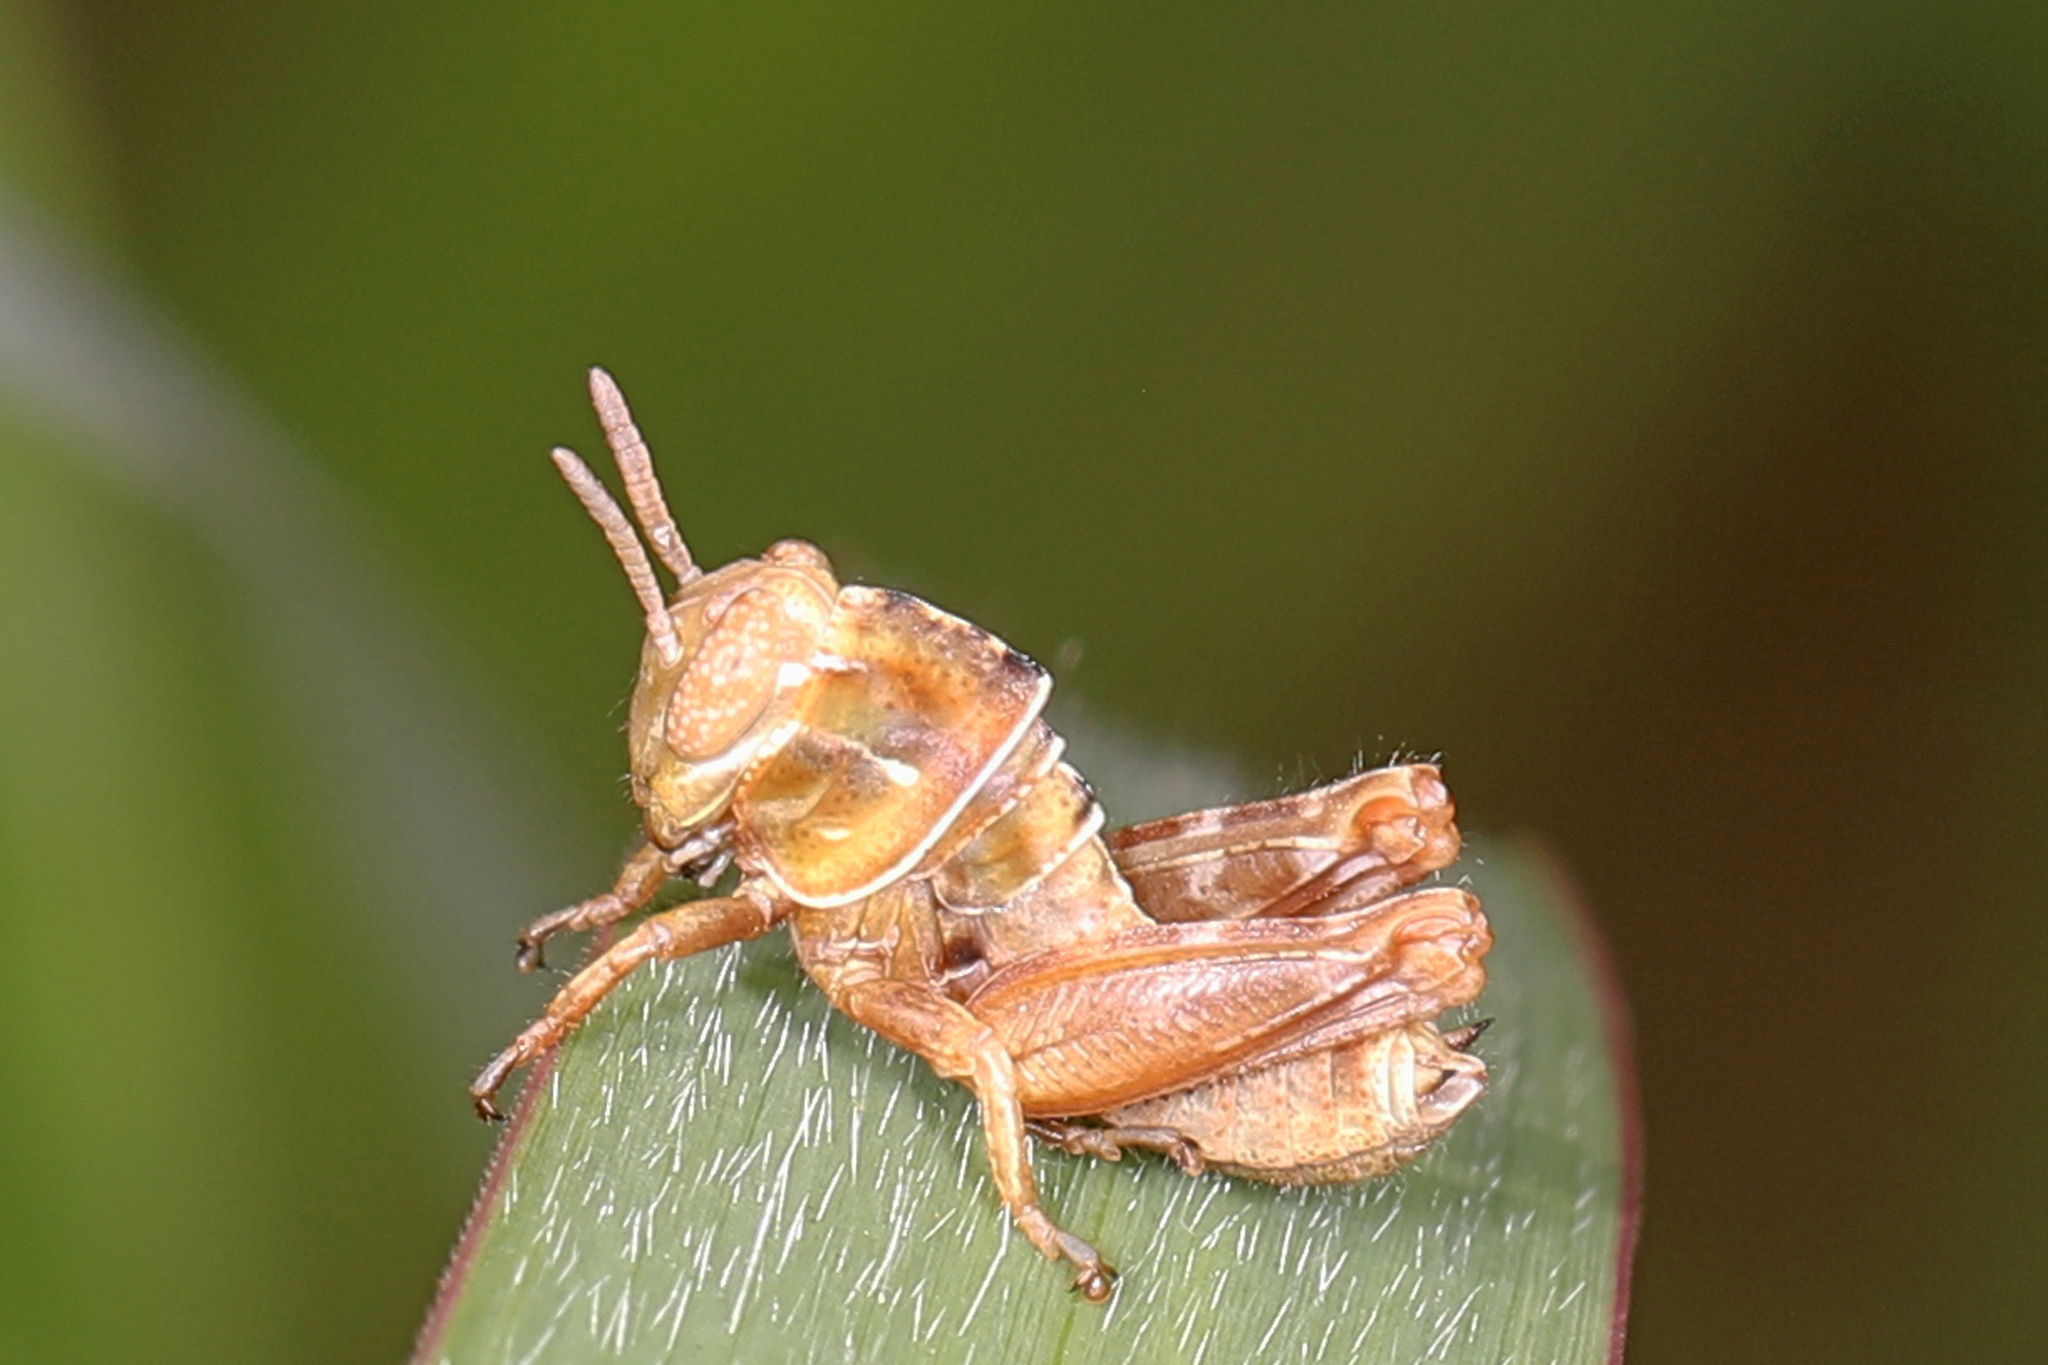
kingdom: Animalia
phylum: Arthropoda
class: Insecta
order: Orthoptera
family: Acrididae
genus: Eotettix
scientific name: Eotettix signatus
